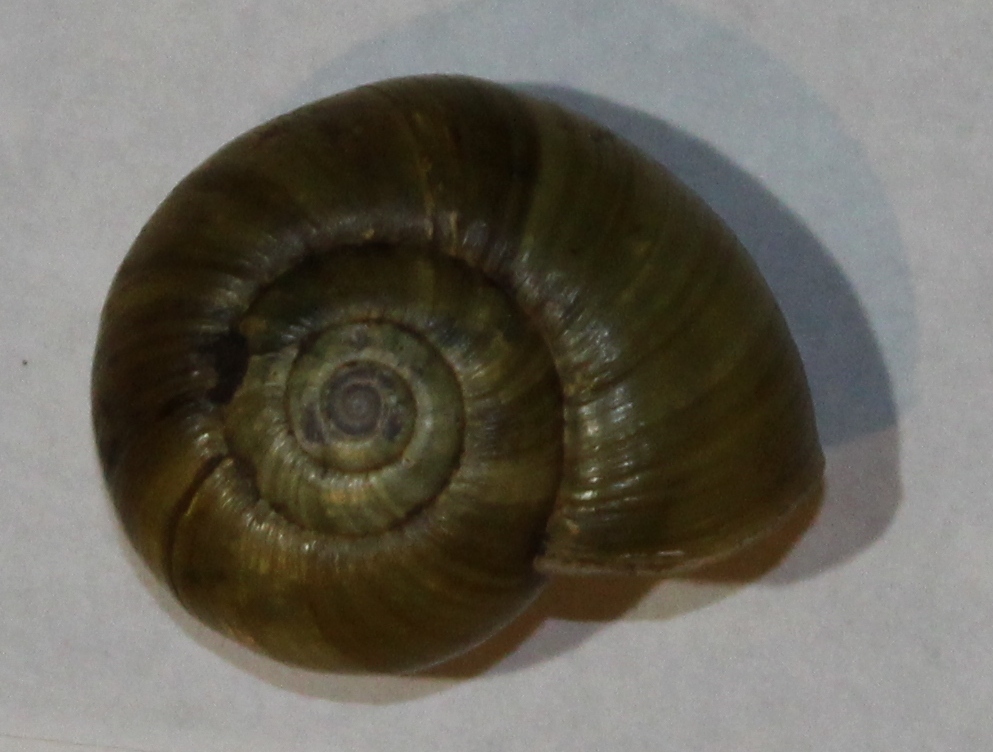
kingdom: Animalia
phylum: Mollusca
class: Gastropoda
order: Stylommatophora
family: Haplotrematidae
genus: Haplotrema
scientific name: Haplotrema vancouverense
